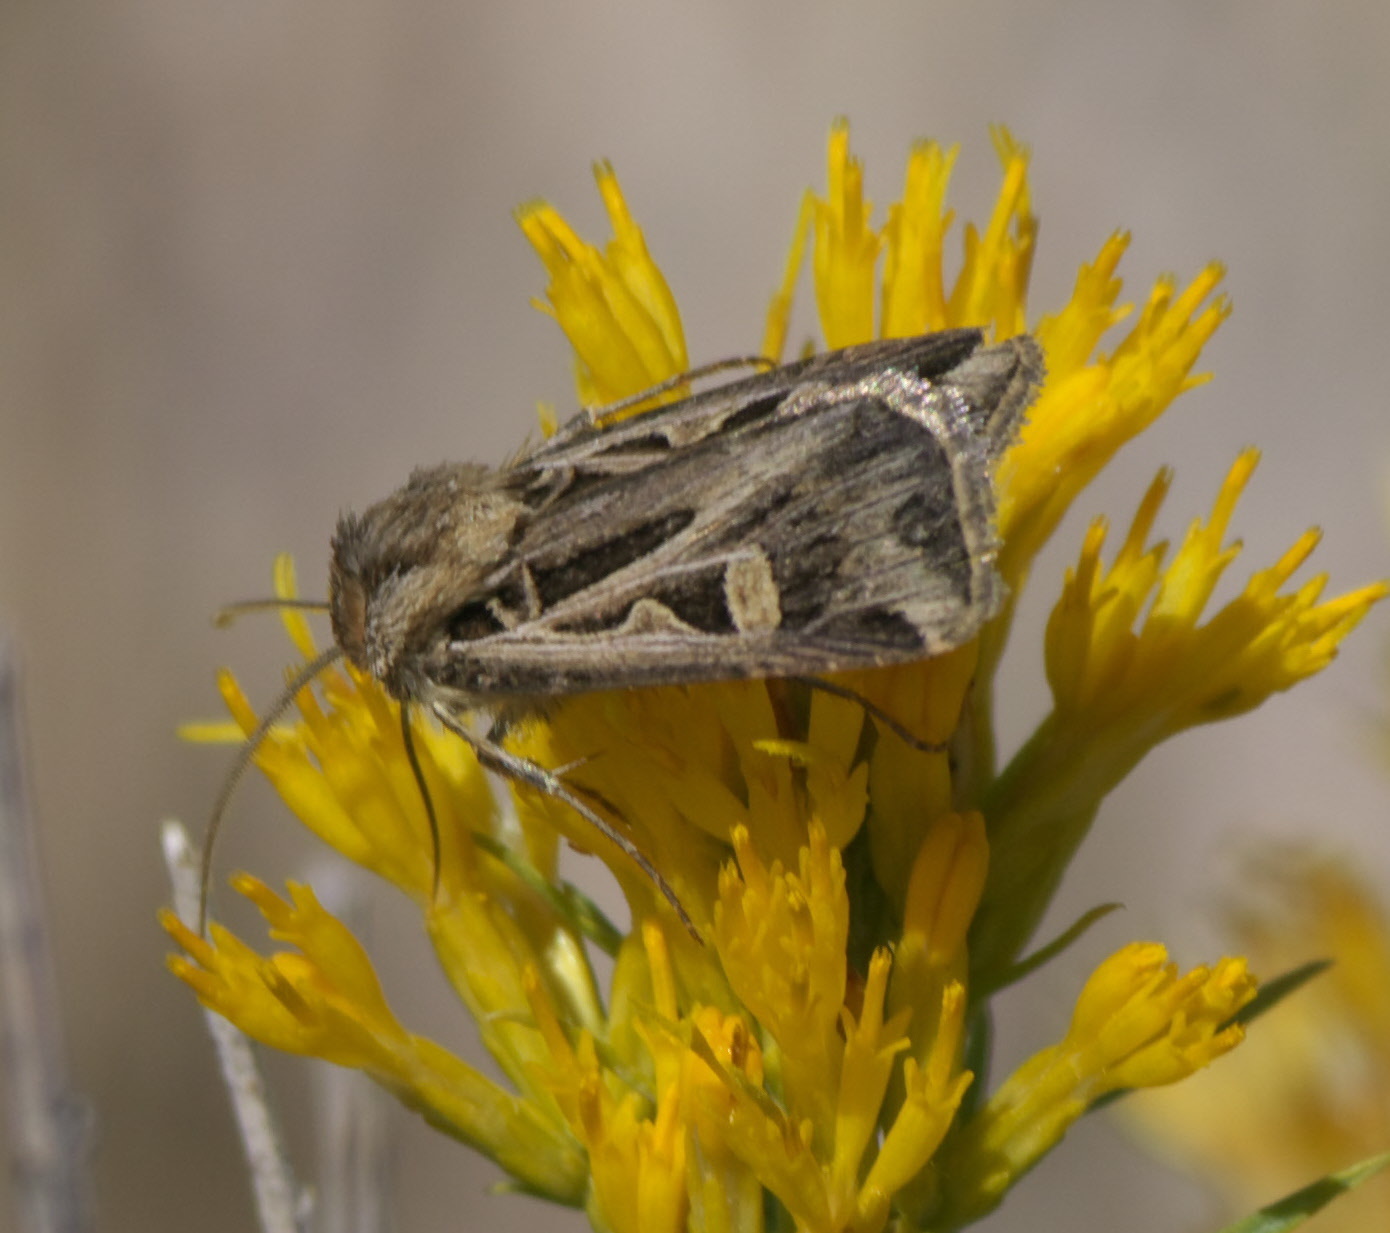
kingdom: Animalia
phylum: Arthropoda
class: Insecta
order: Lepidoptera
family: Noctuidae
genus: Feltia
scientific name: Feltia jaculifera
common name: Dingy cutworm moth
